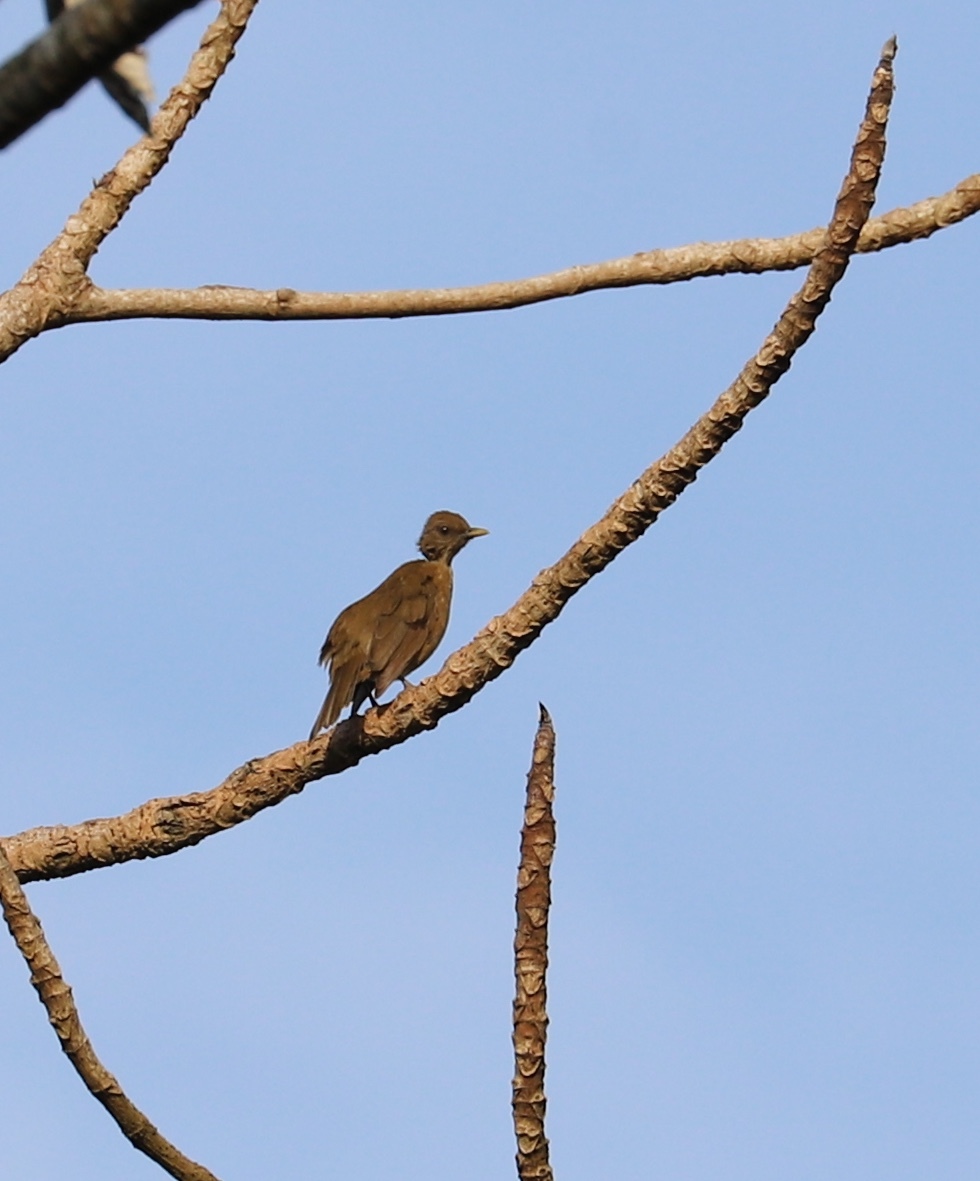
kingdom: Animalia
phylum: Chordata
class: Aves
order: Passeriformes
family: Turdidae
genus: Turdus
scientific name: Turdus grayi
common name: Clay-colored thrush
